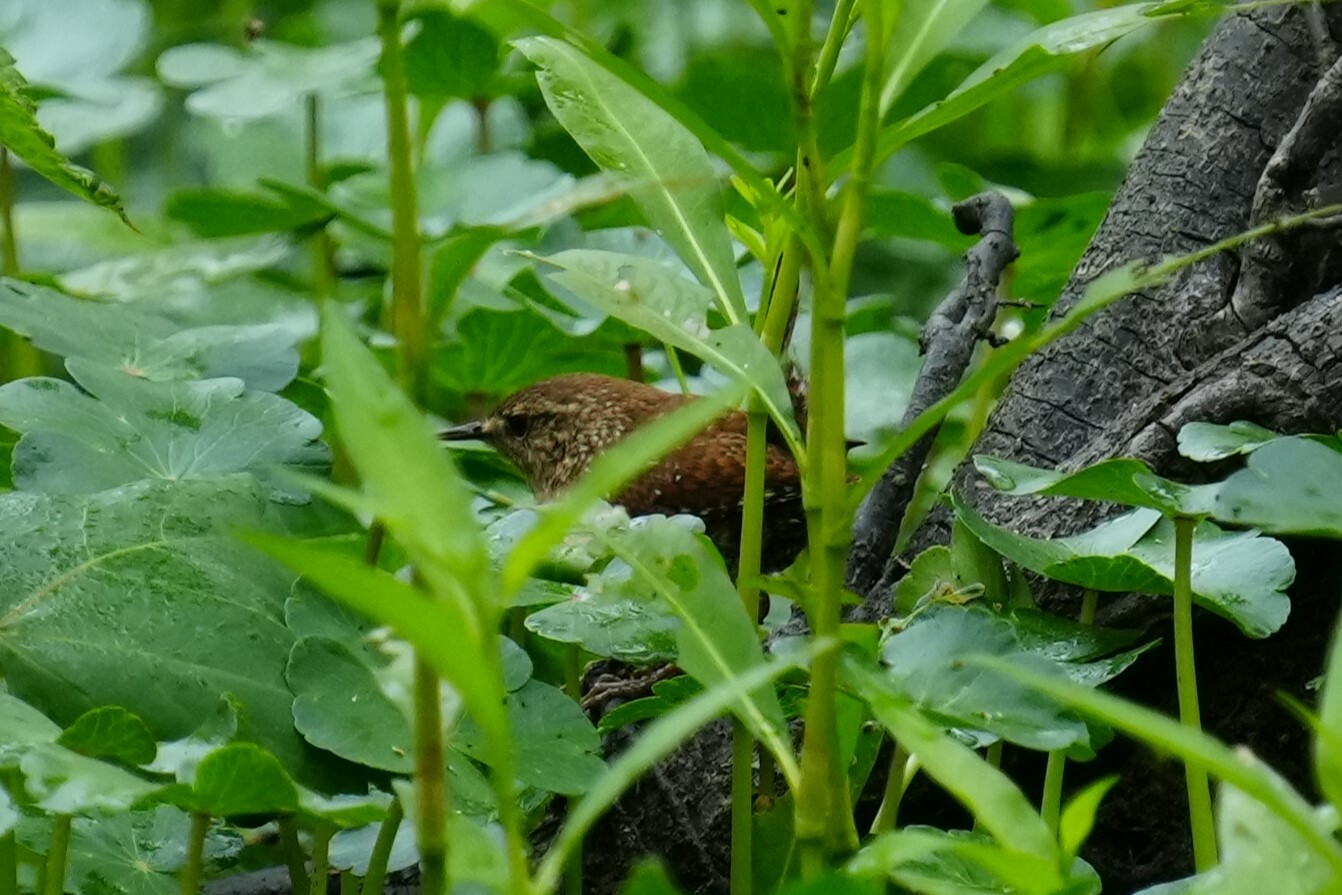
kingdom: Animalia
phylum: Chordata
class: Aves
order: Passeriformes
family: Troglodytidae
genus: Troglodytes
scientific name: Troglodytes hiemalis
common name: Winter wren
